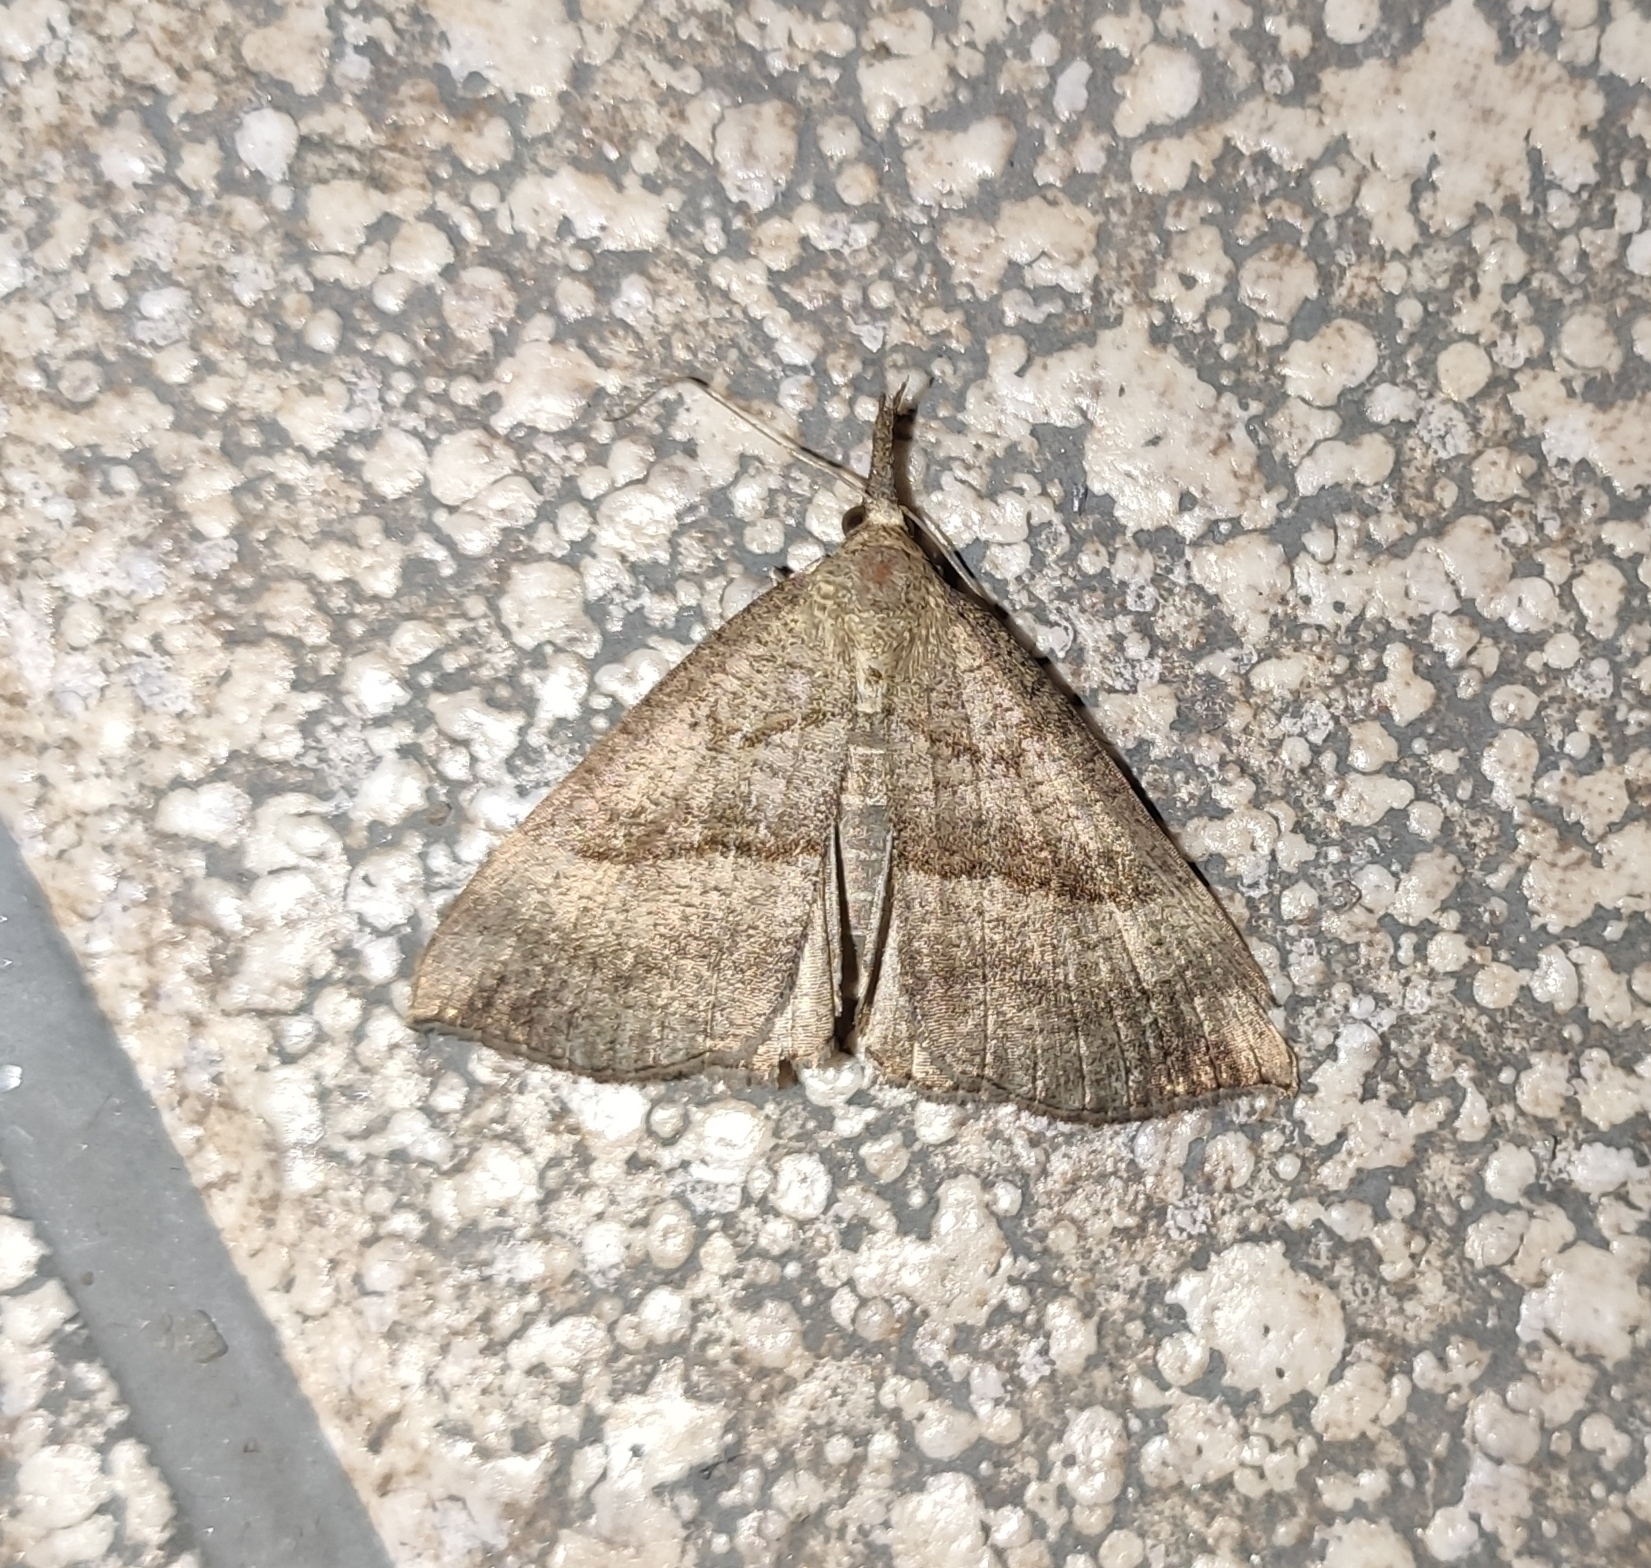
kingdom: Animalia
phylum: Arthropoda
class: Insecta
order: Lepidoptera
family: Erebidae
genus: Hypena
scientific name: Hypena proboscidalis
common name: Snout
